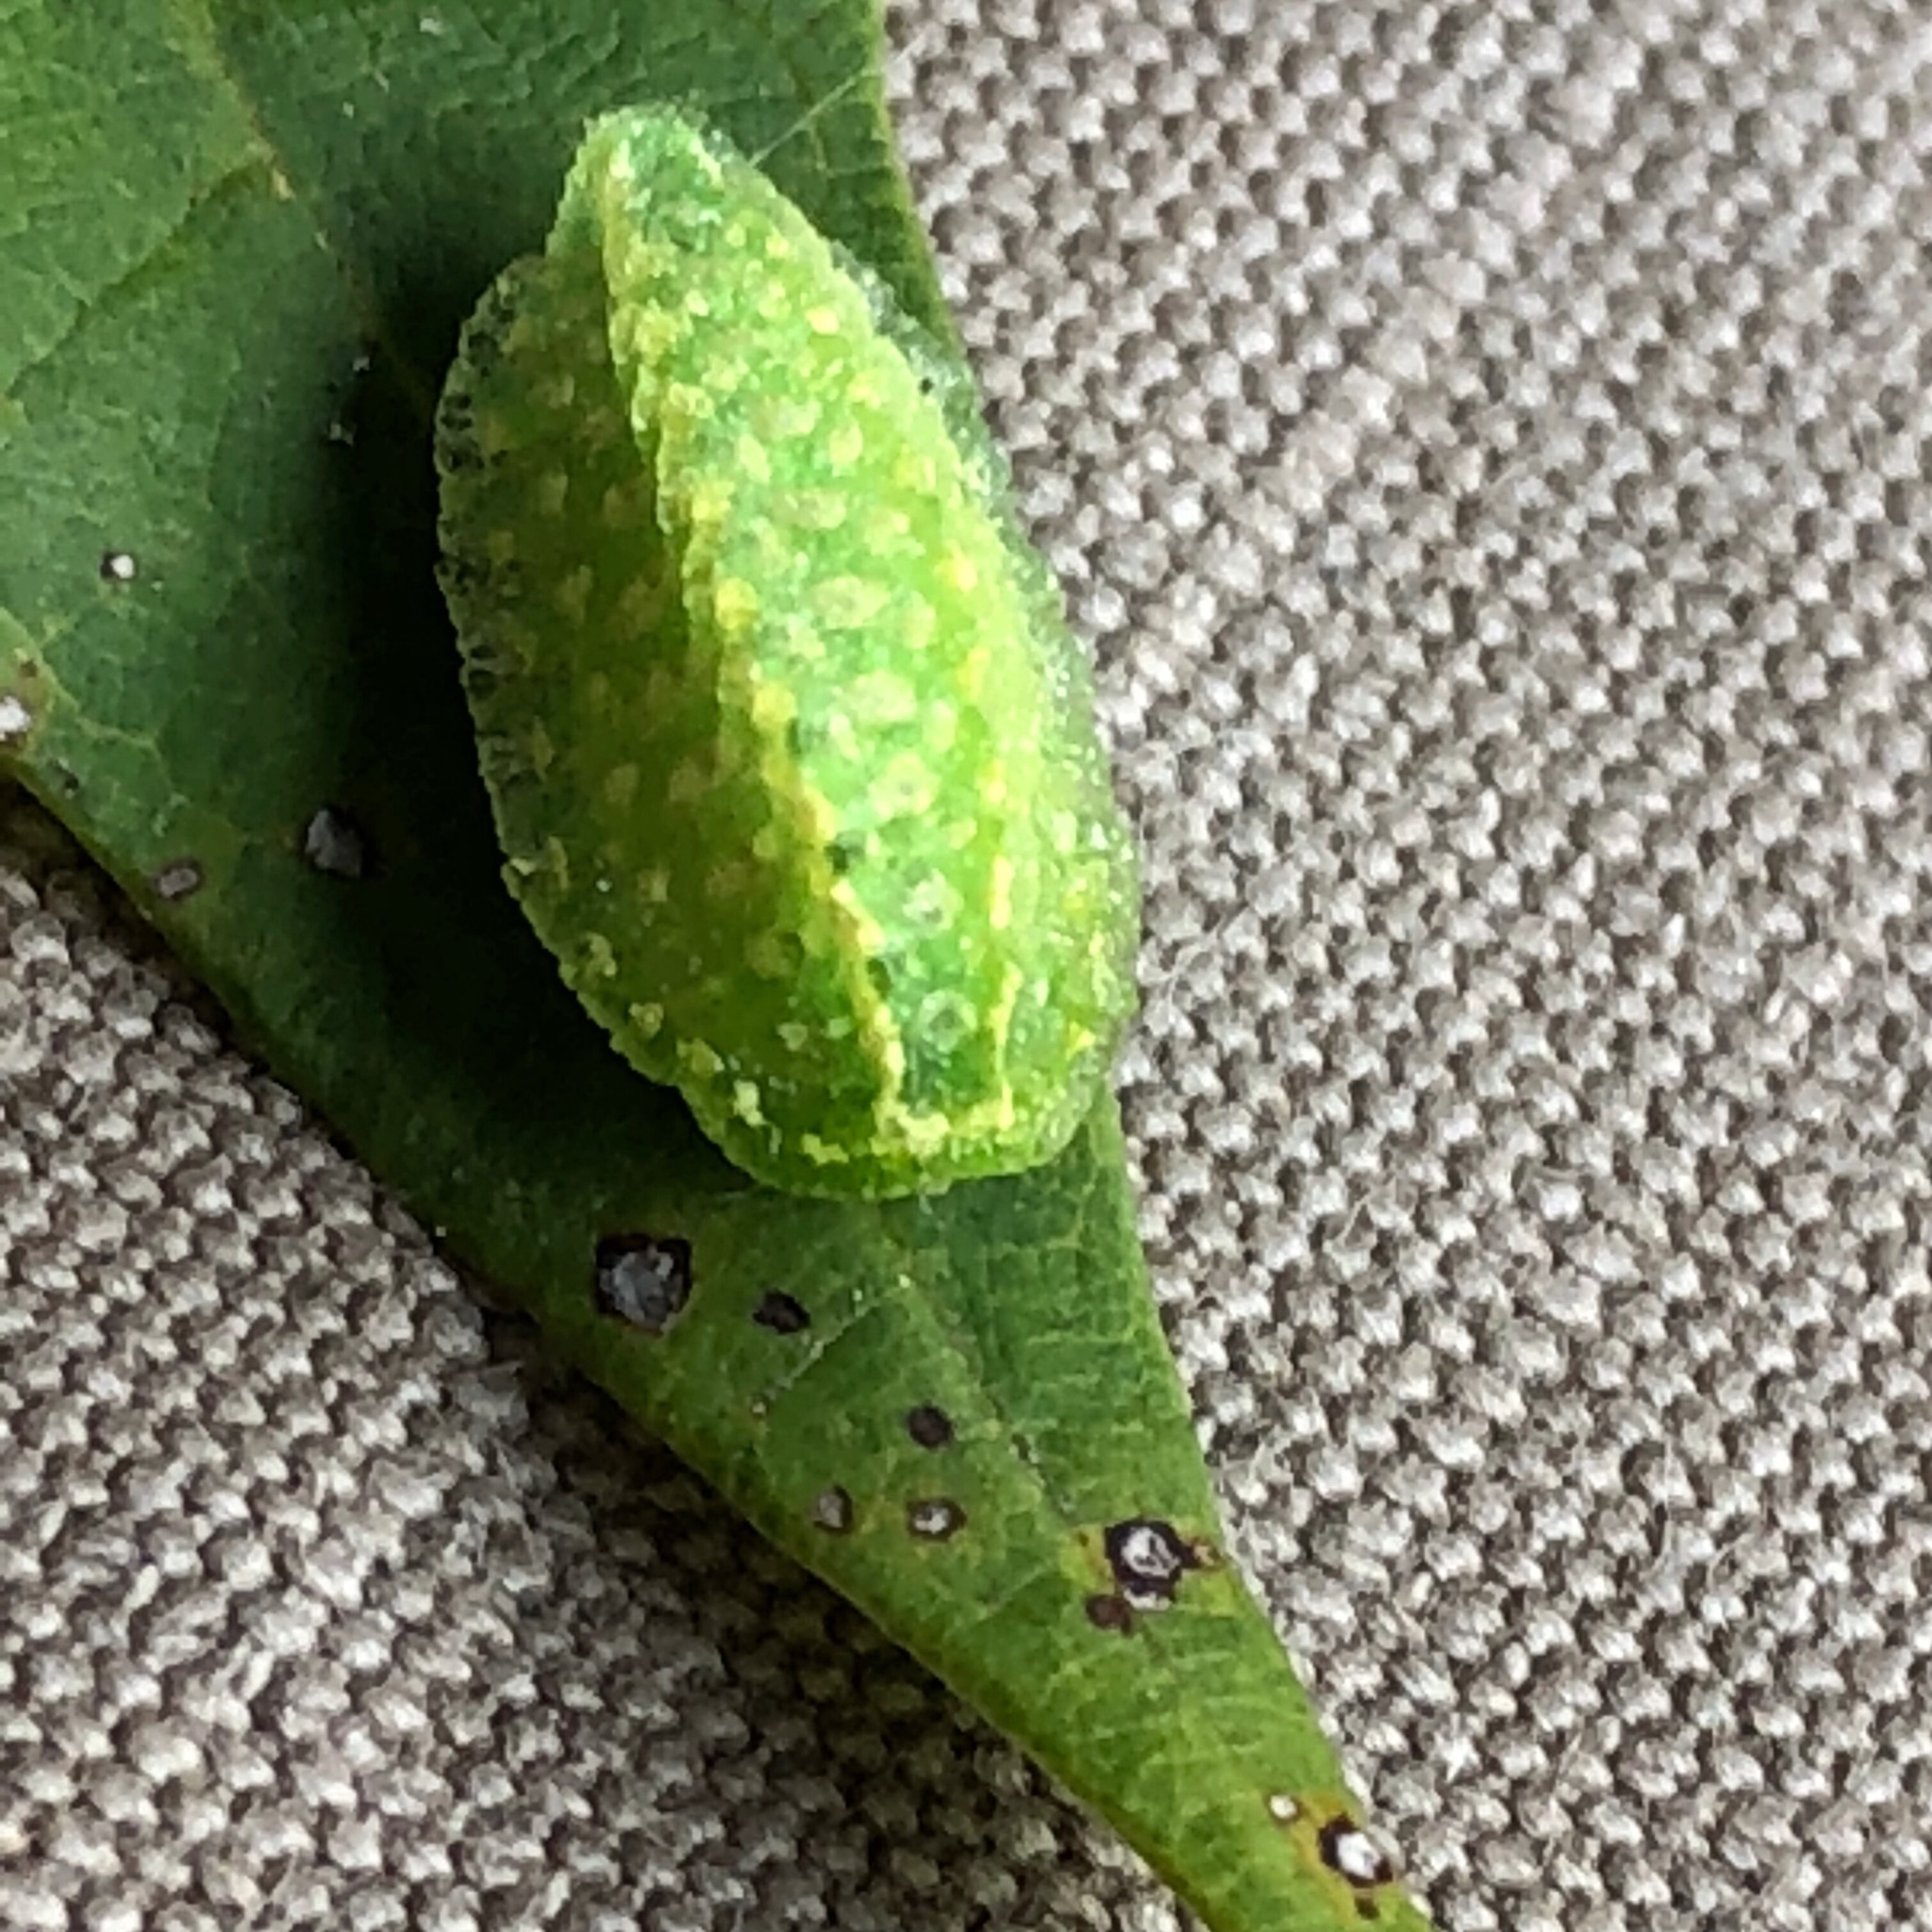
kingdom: Animalia
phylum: Arthropoda
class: Insecta
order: Lepidoptera
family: Limacodidae
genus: Lithacodes
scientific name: Lithacodes fasciola
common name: Yellow-shouldered slug moth
